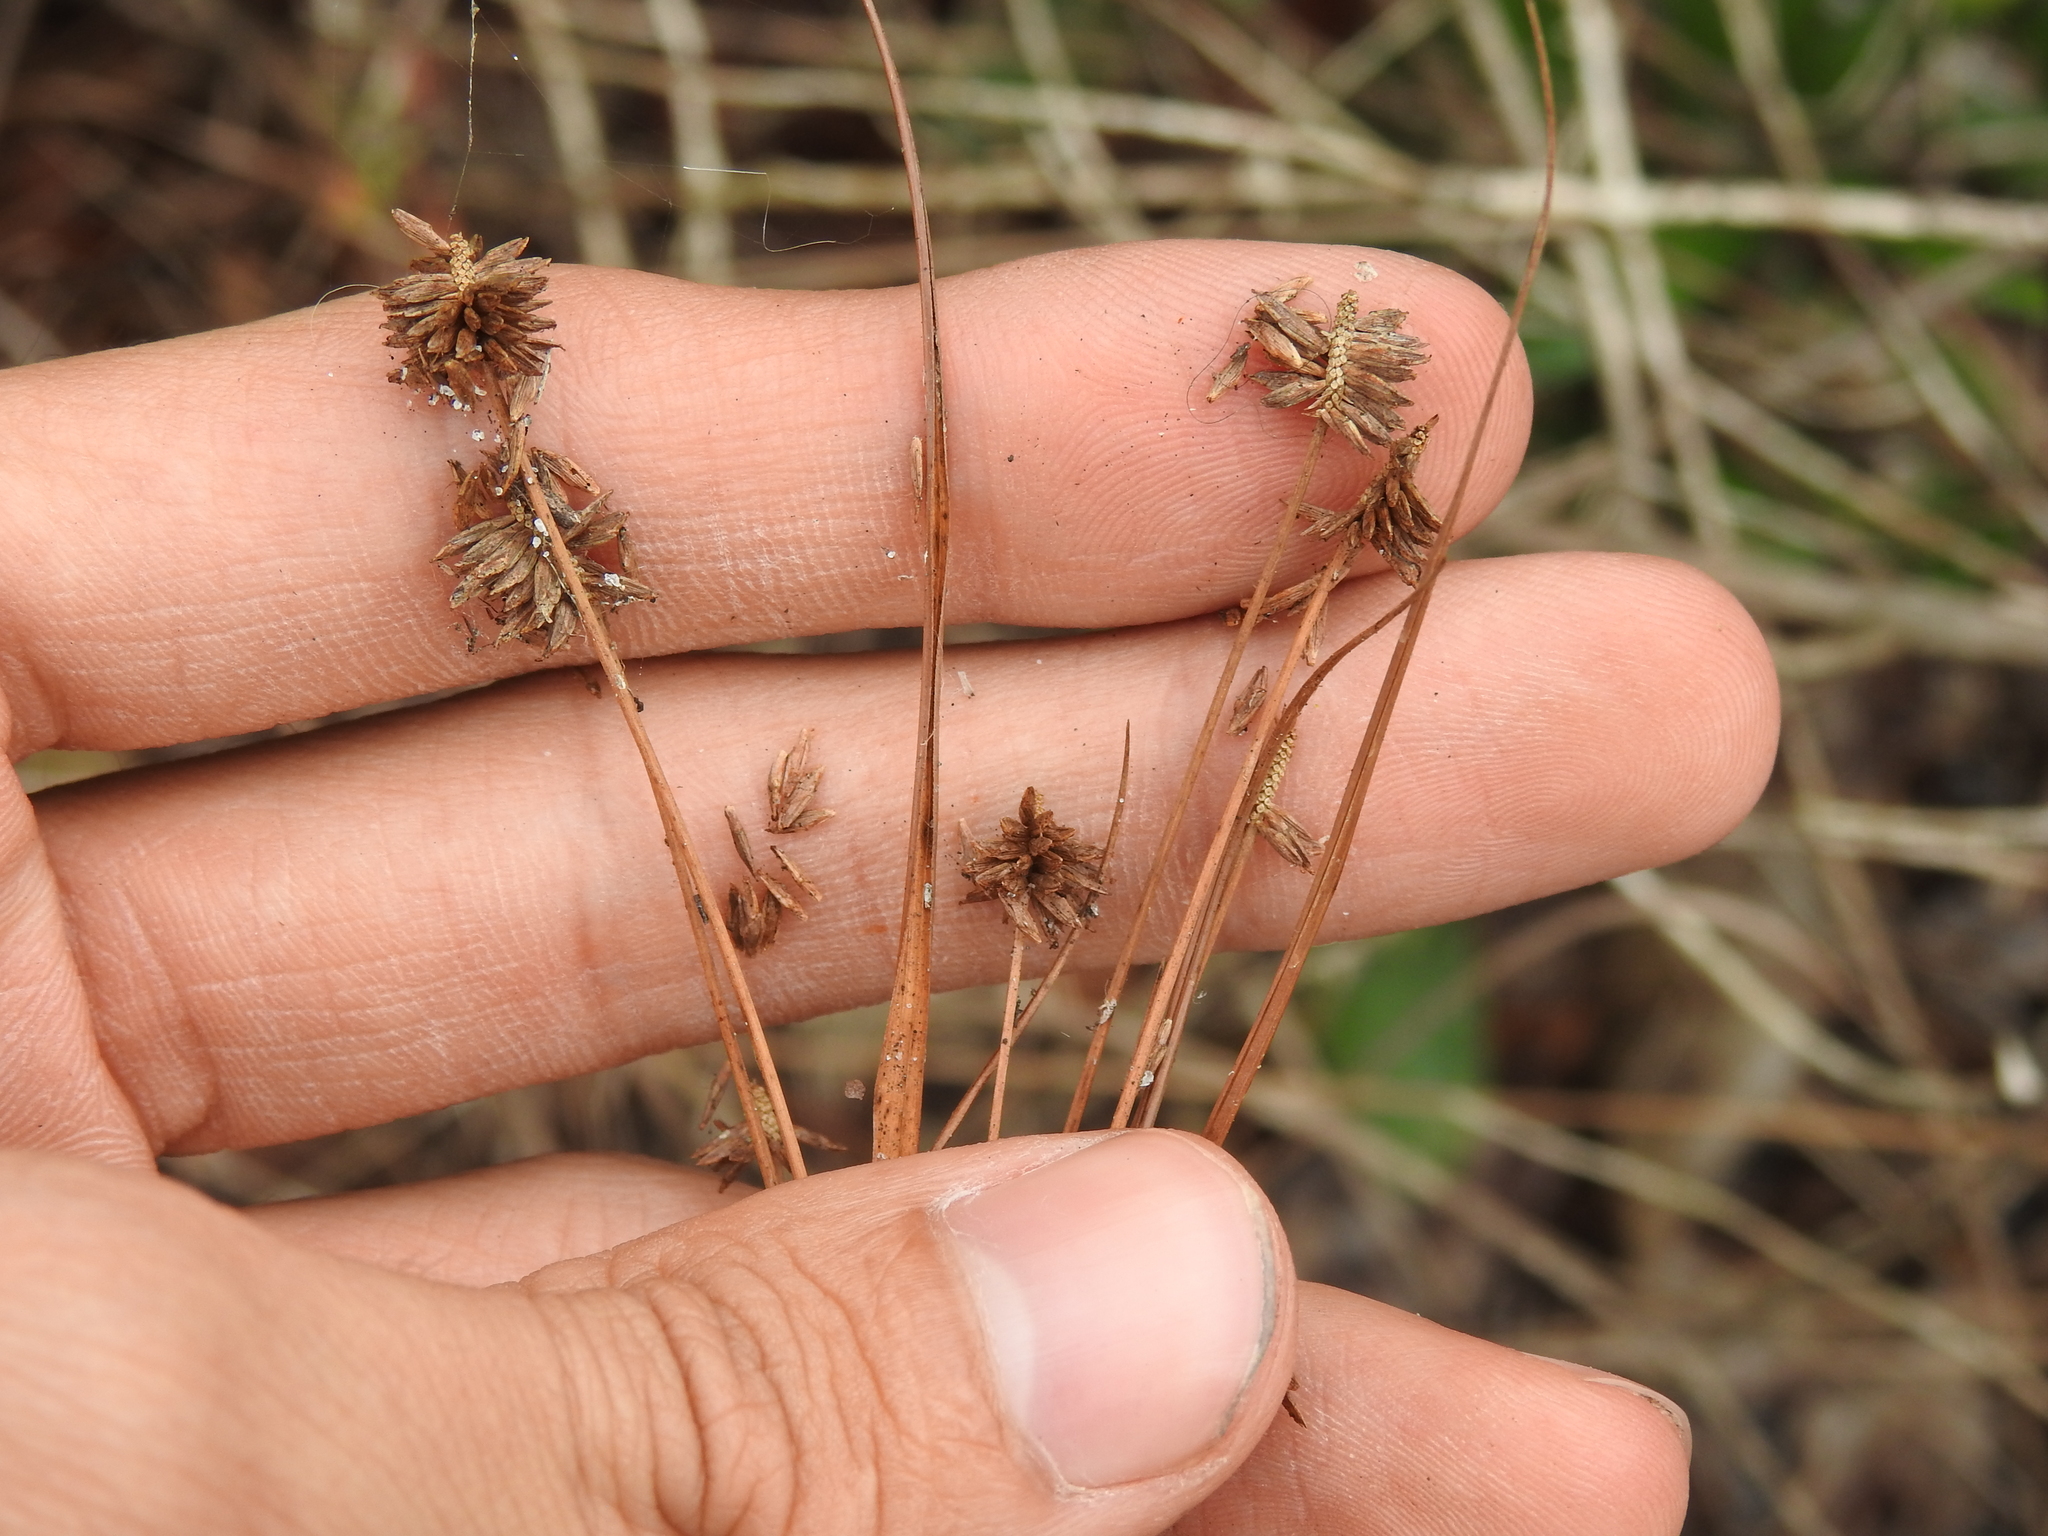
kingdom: Plantae
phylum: Tracheophyta
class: Liliopsida
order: Poales
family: Cyperaceae
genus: Cyperus
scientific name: Cyperus retrorsus
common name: Pinebarren flat sedge
